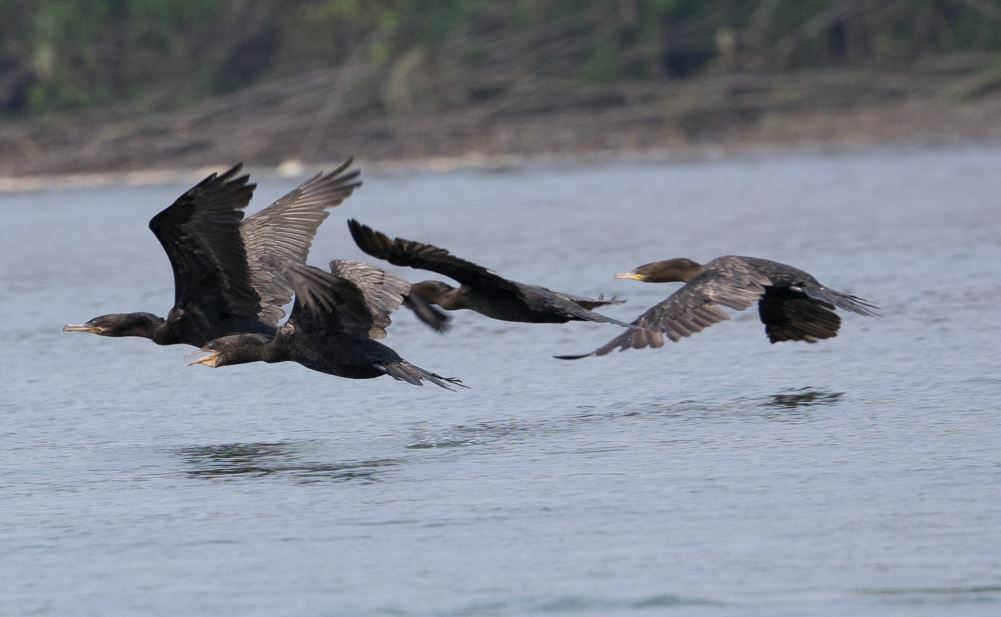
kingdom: Animalia
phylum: Chordata
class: Aves
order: Suliformes
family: Phalacrocoracidae
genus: Phalacrocorax
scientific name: Phalacrocorax brasilianus
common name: Neotropic cormorant
